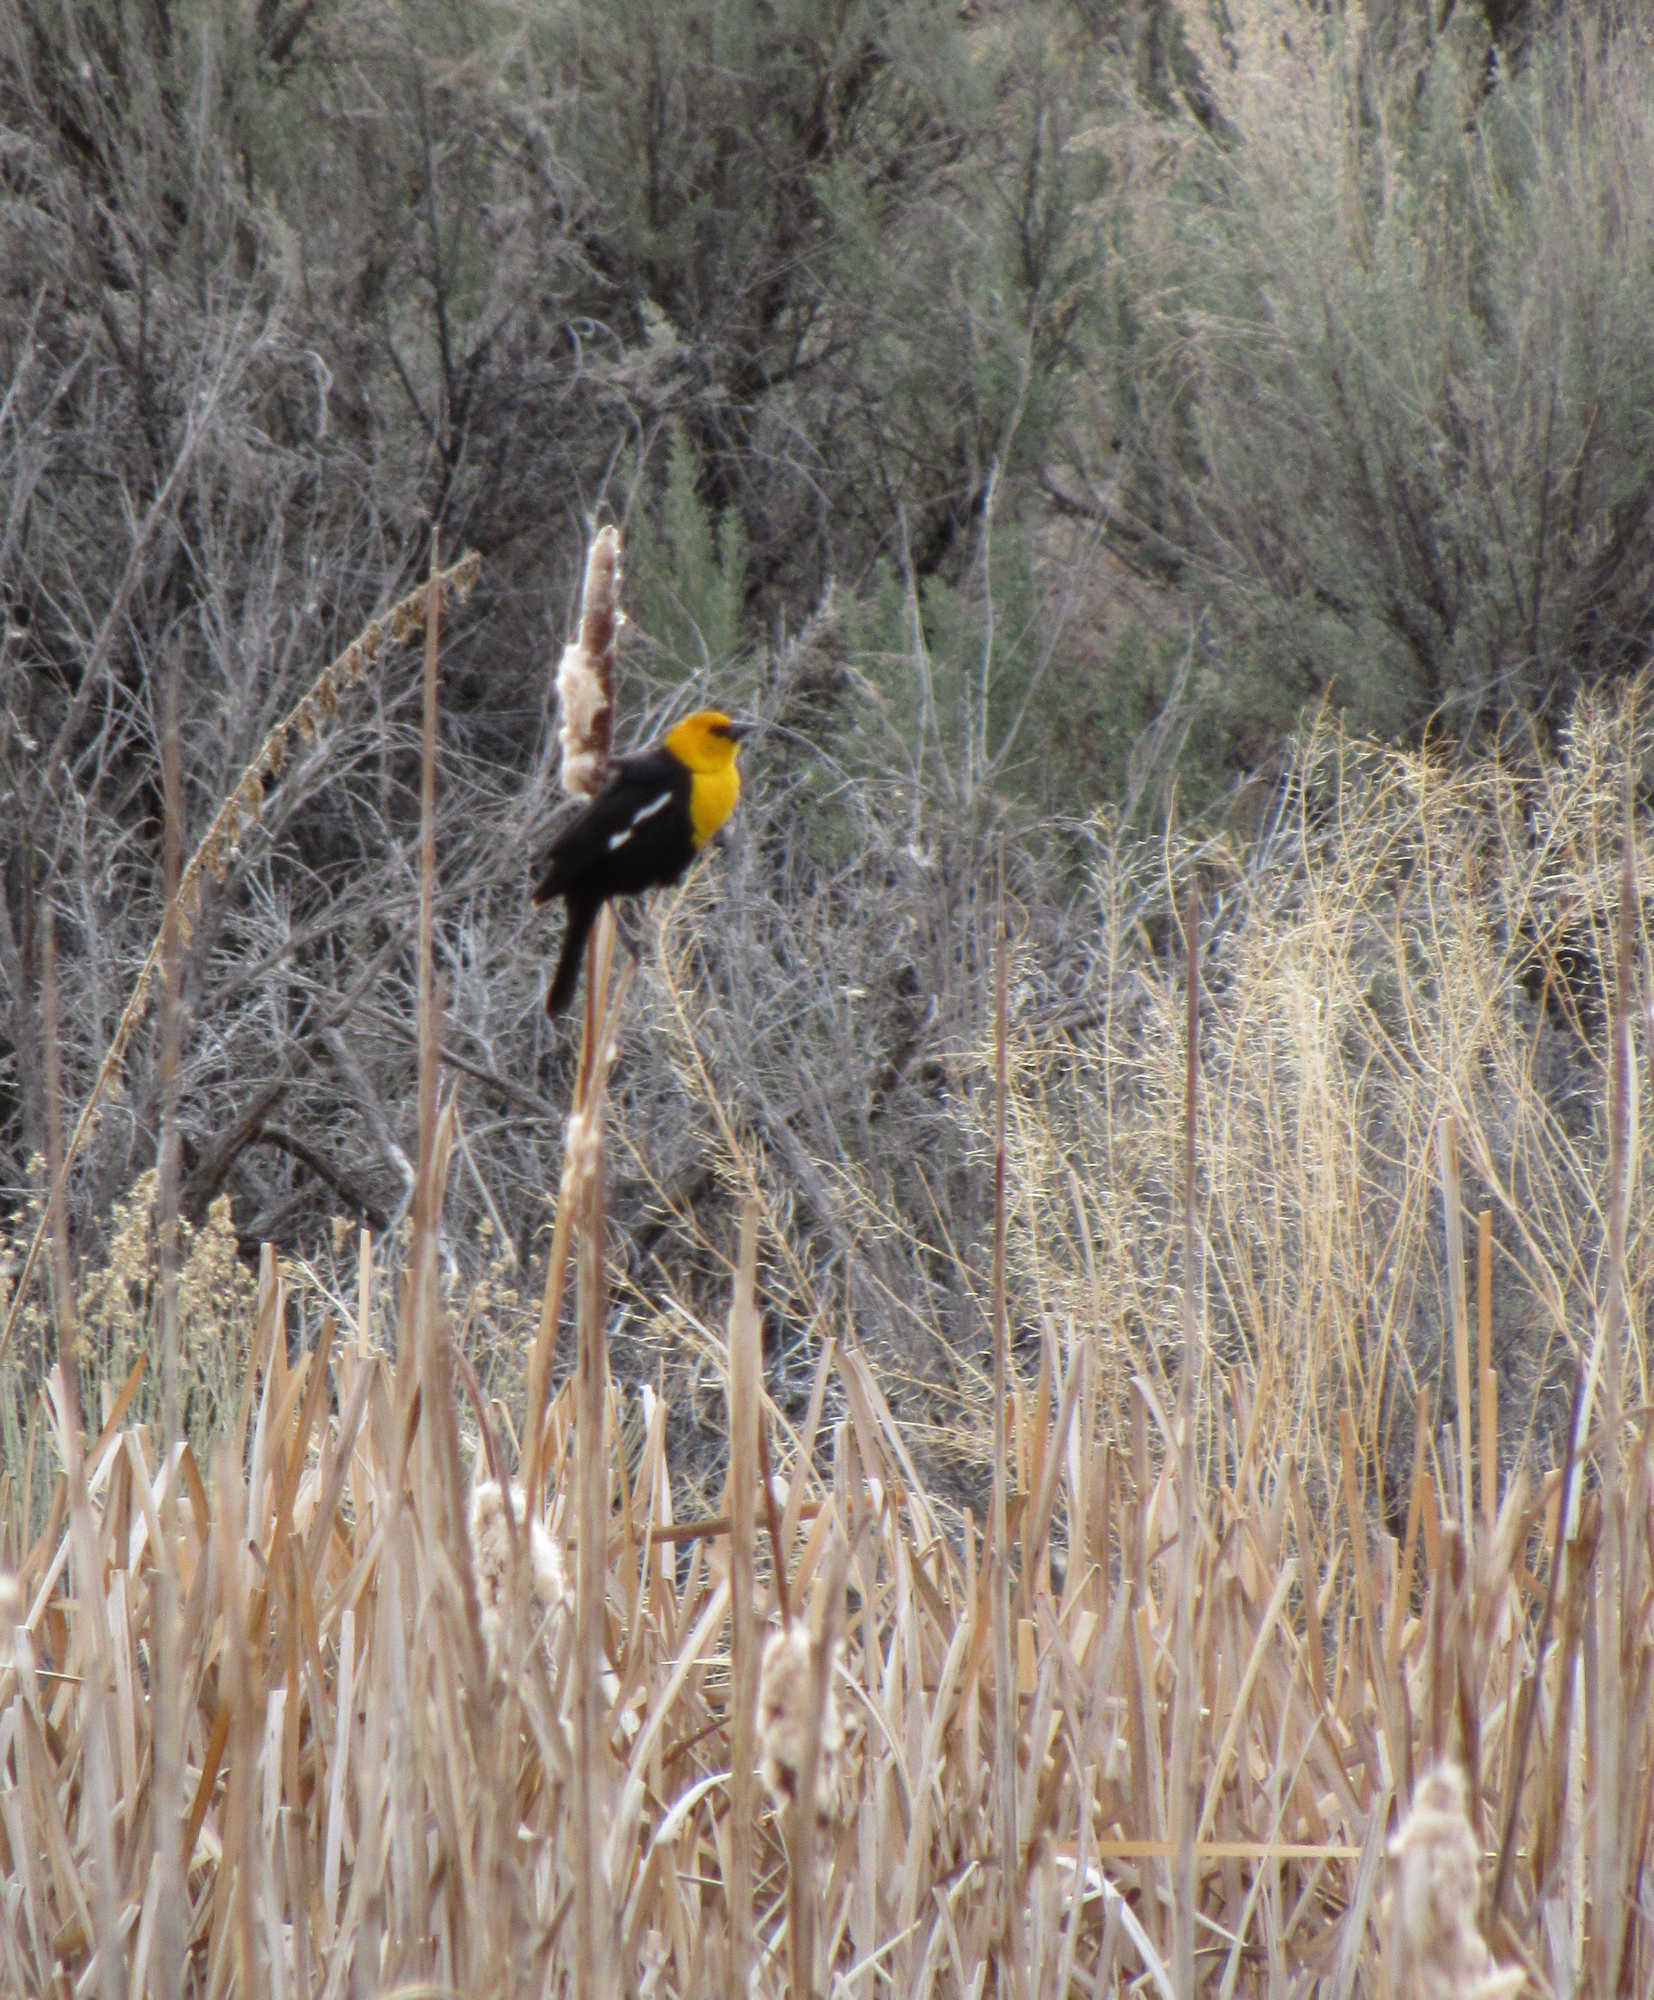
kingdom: Animalia
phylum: Chordata
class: Aves
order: Passeriformes
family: Icteridae
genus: Xanthocephalus
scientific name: Xanthocephalus xanthocephalus
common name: Yellow-headed blackbird
